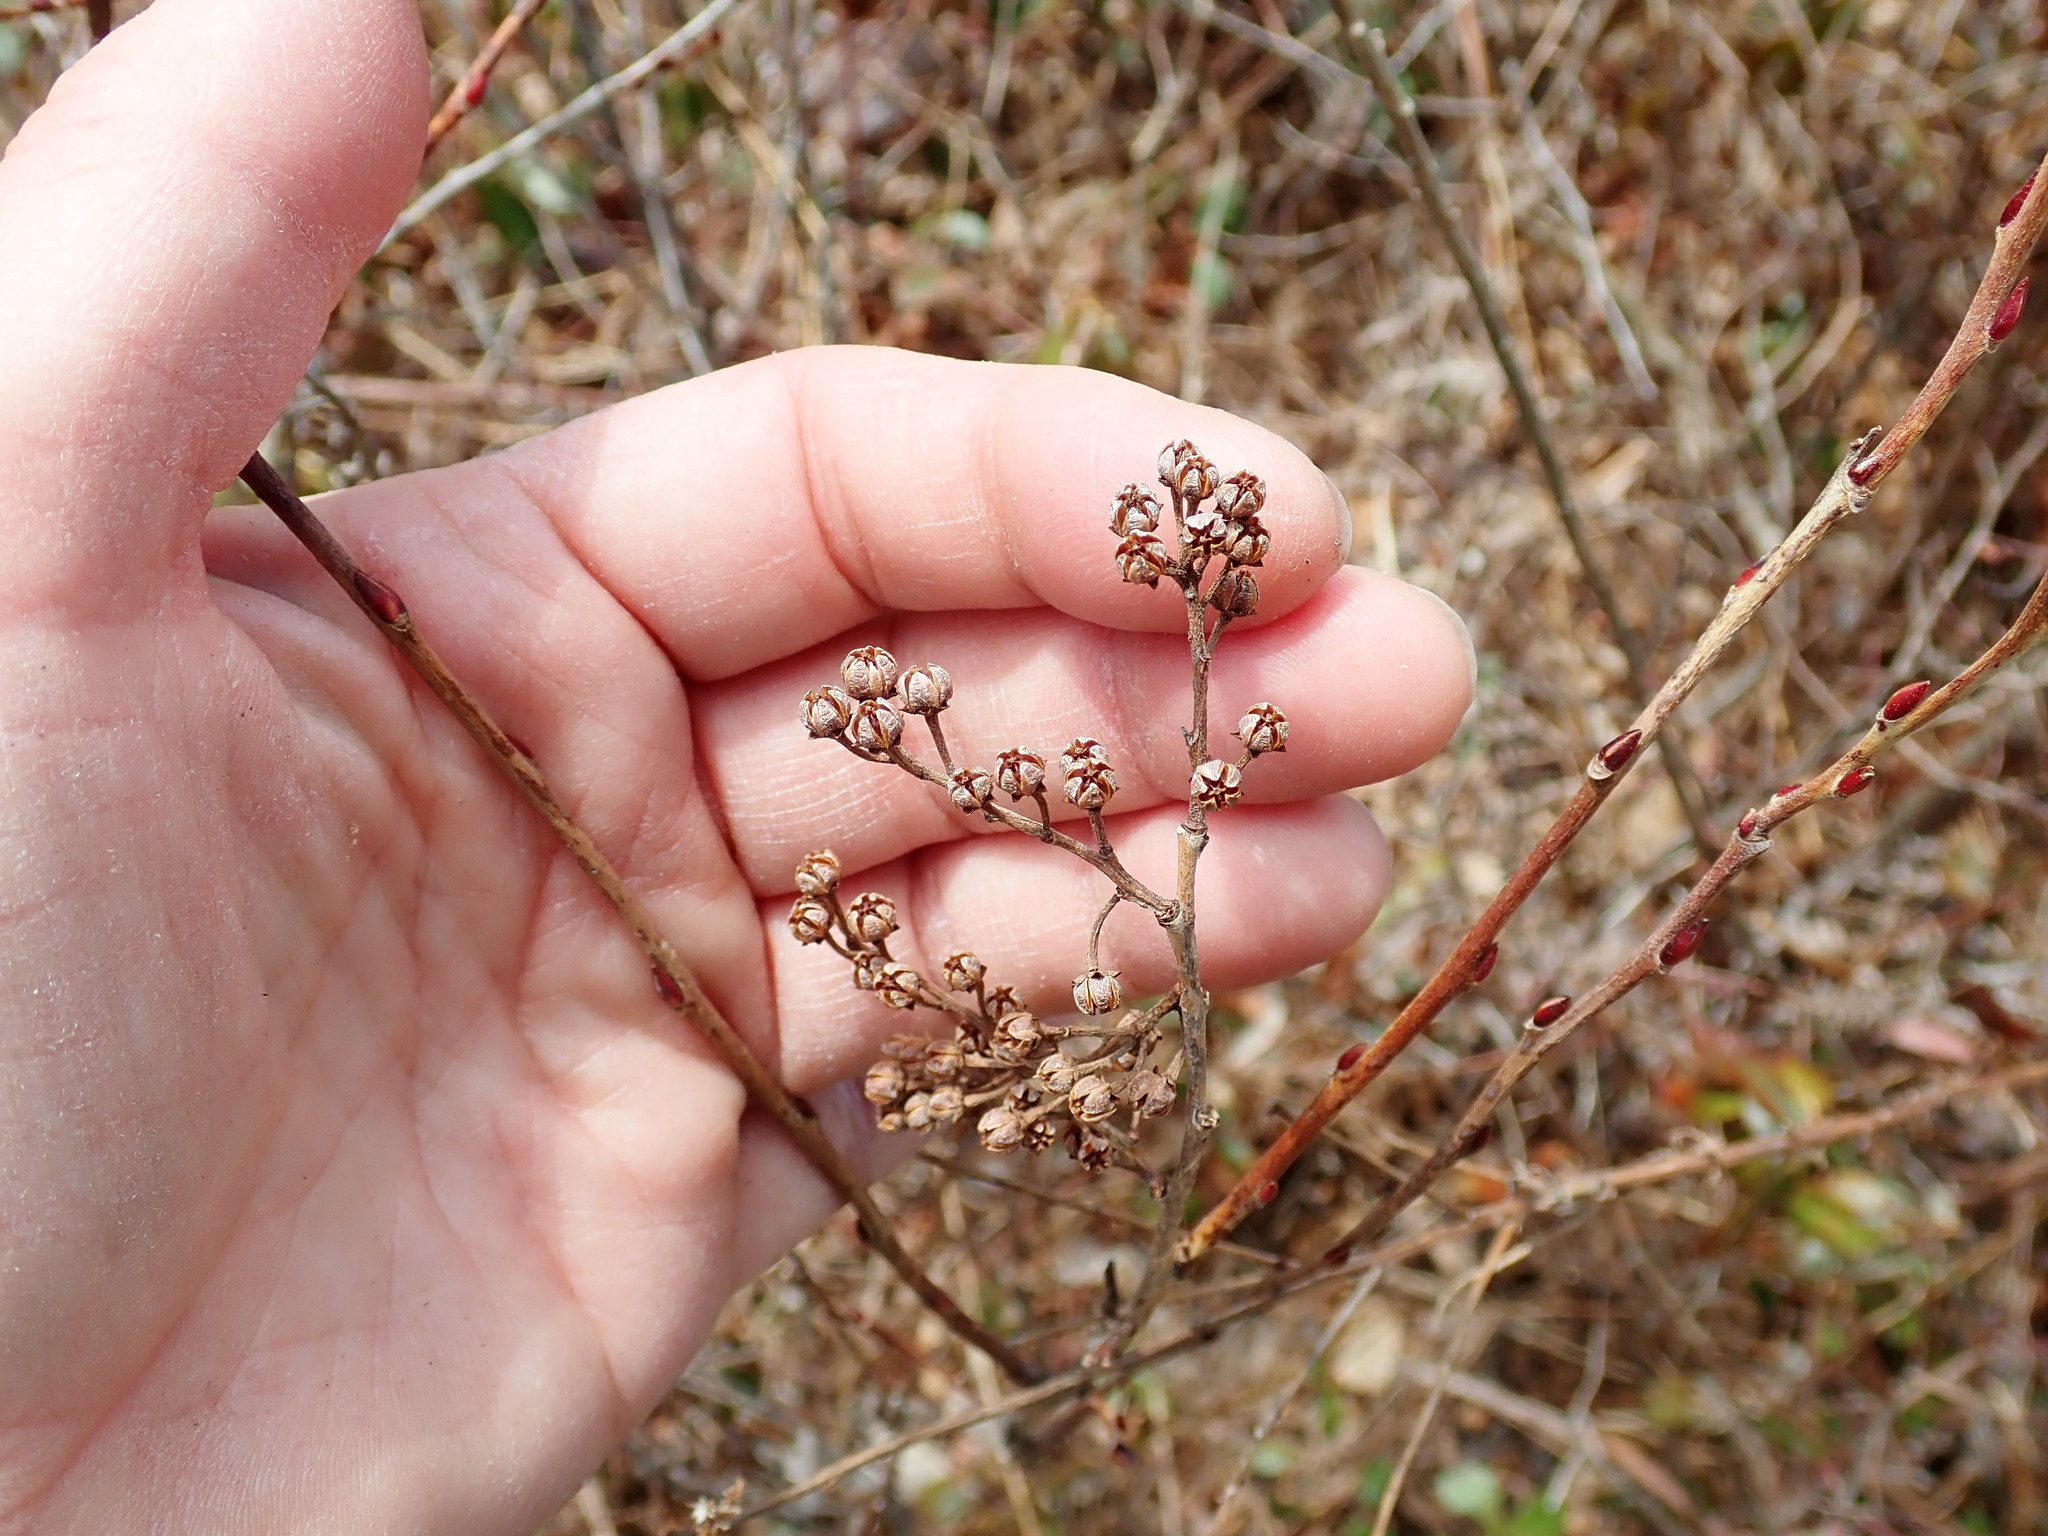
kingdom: Plantae
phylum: Tracheophyta
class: Magnoliopsida
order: Ericales
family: Ericaceae
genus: Lyonia
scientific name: Lyonia ligustrina
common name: Maleberry
